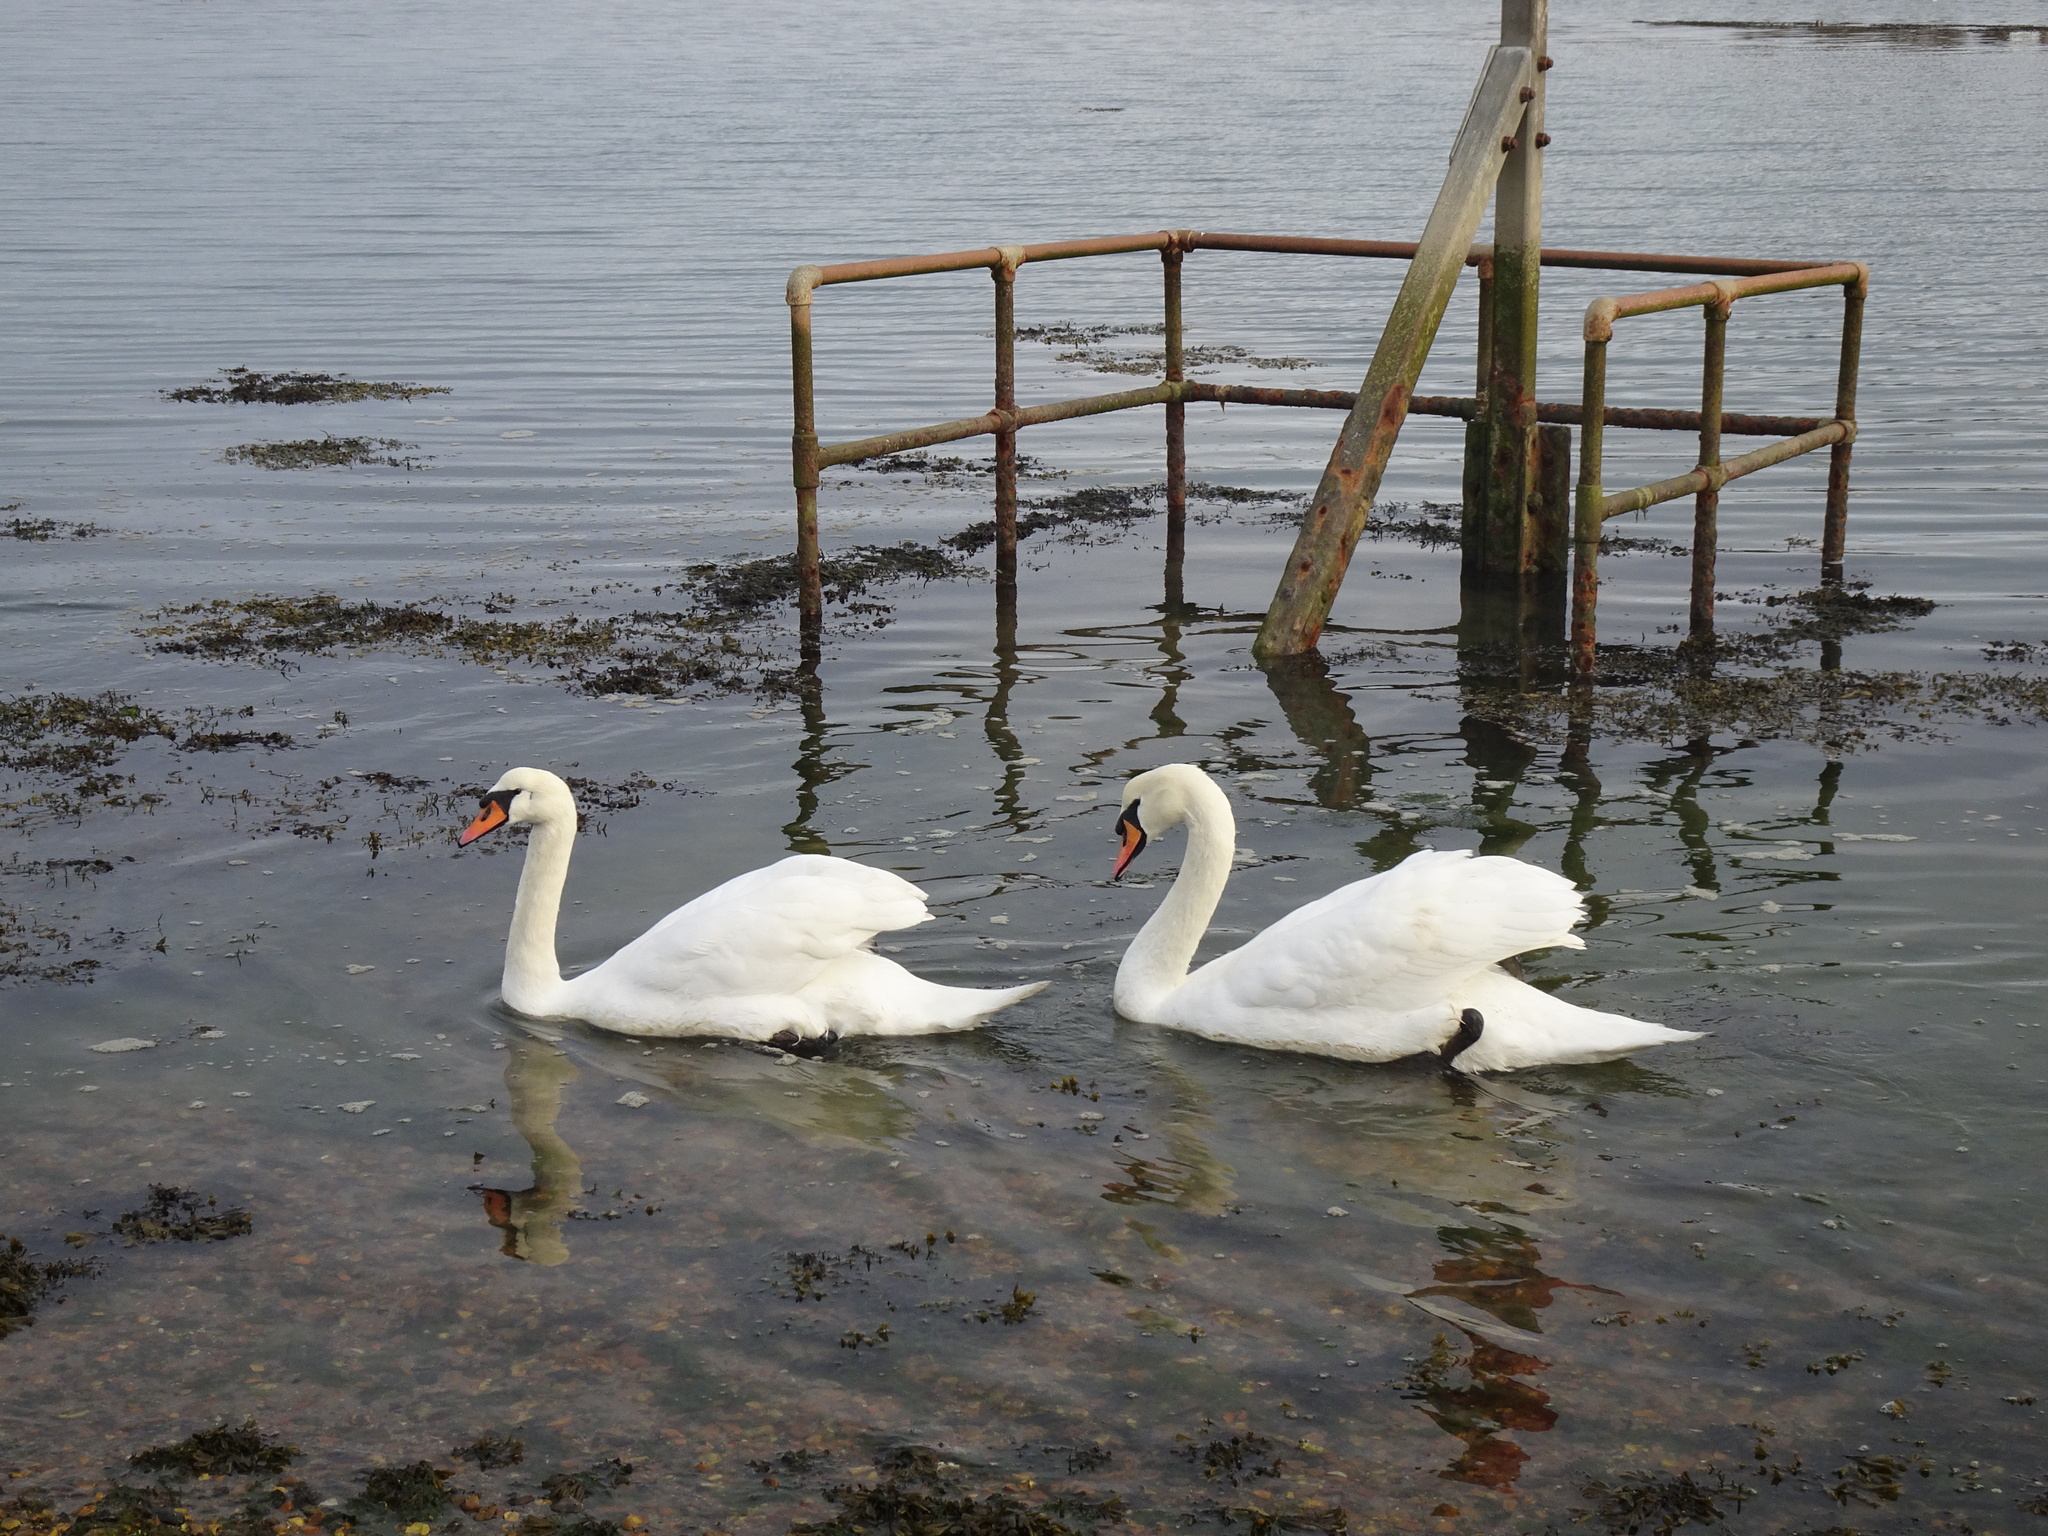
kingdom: Animalia
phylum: Chordata
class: Aves
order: Anseriformes
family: Anatidae
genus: Cygnus
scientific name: Cygnus olor
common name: Mute swan
